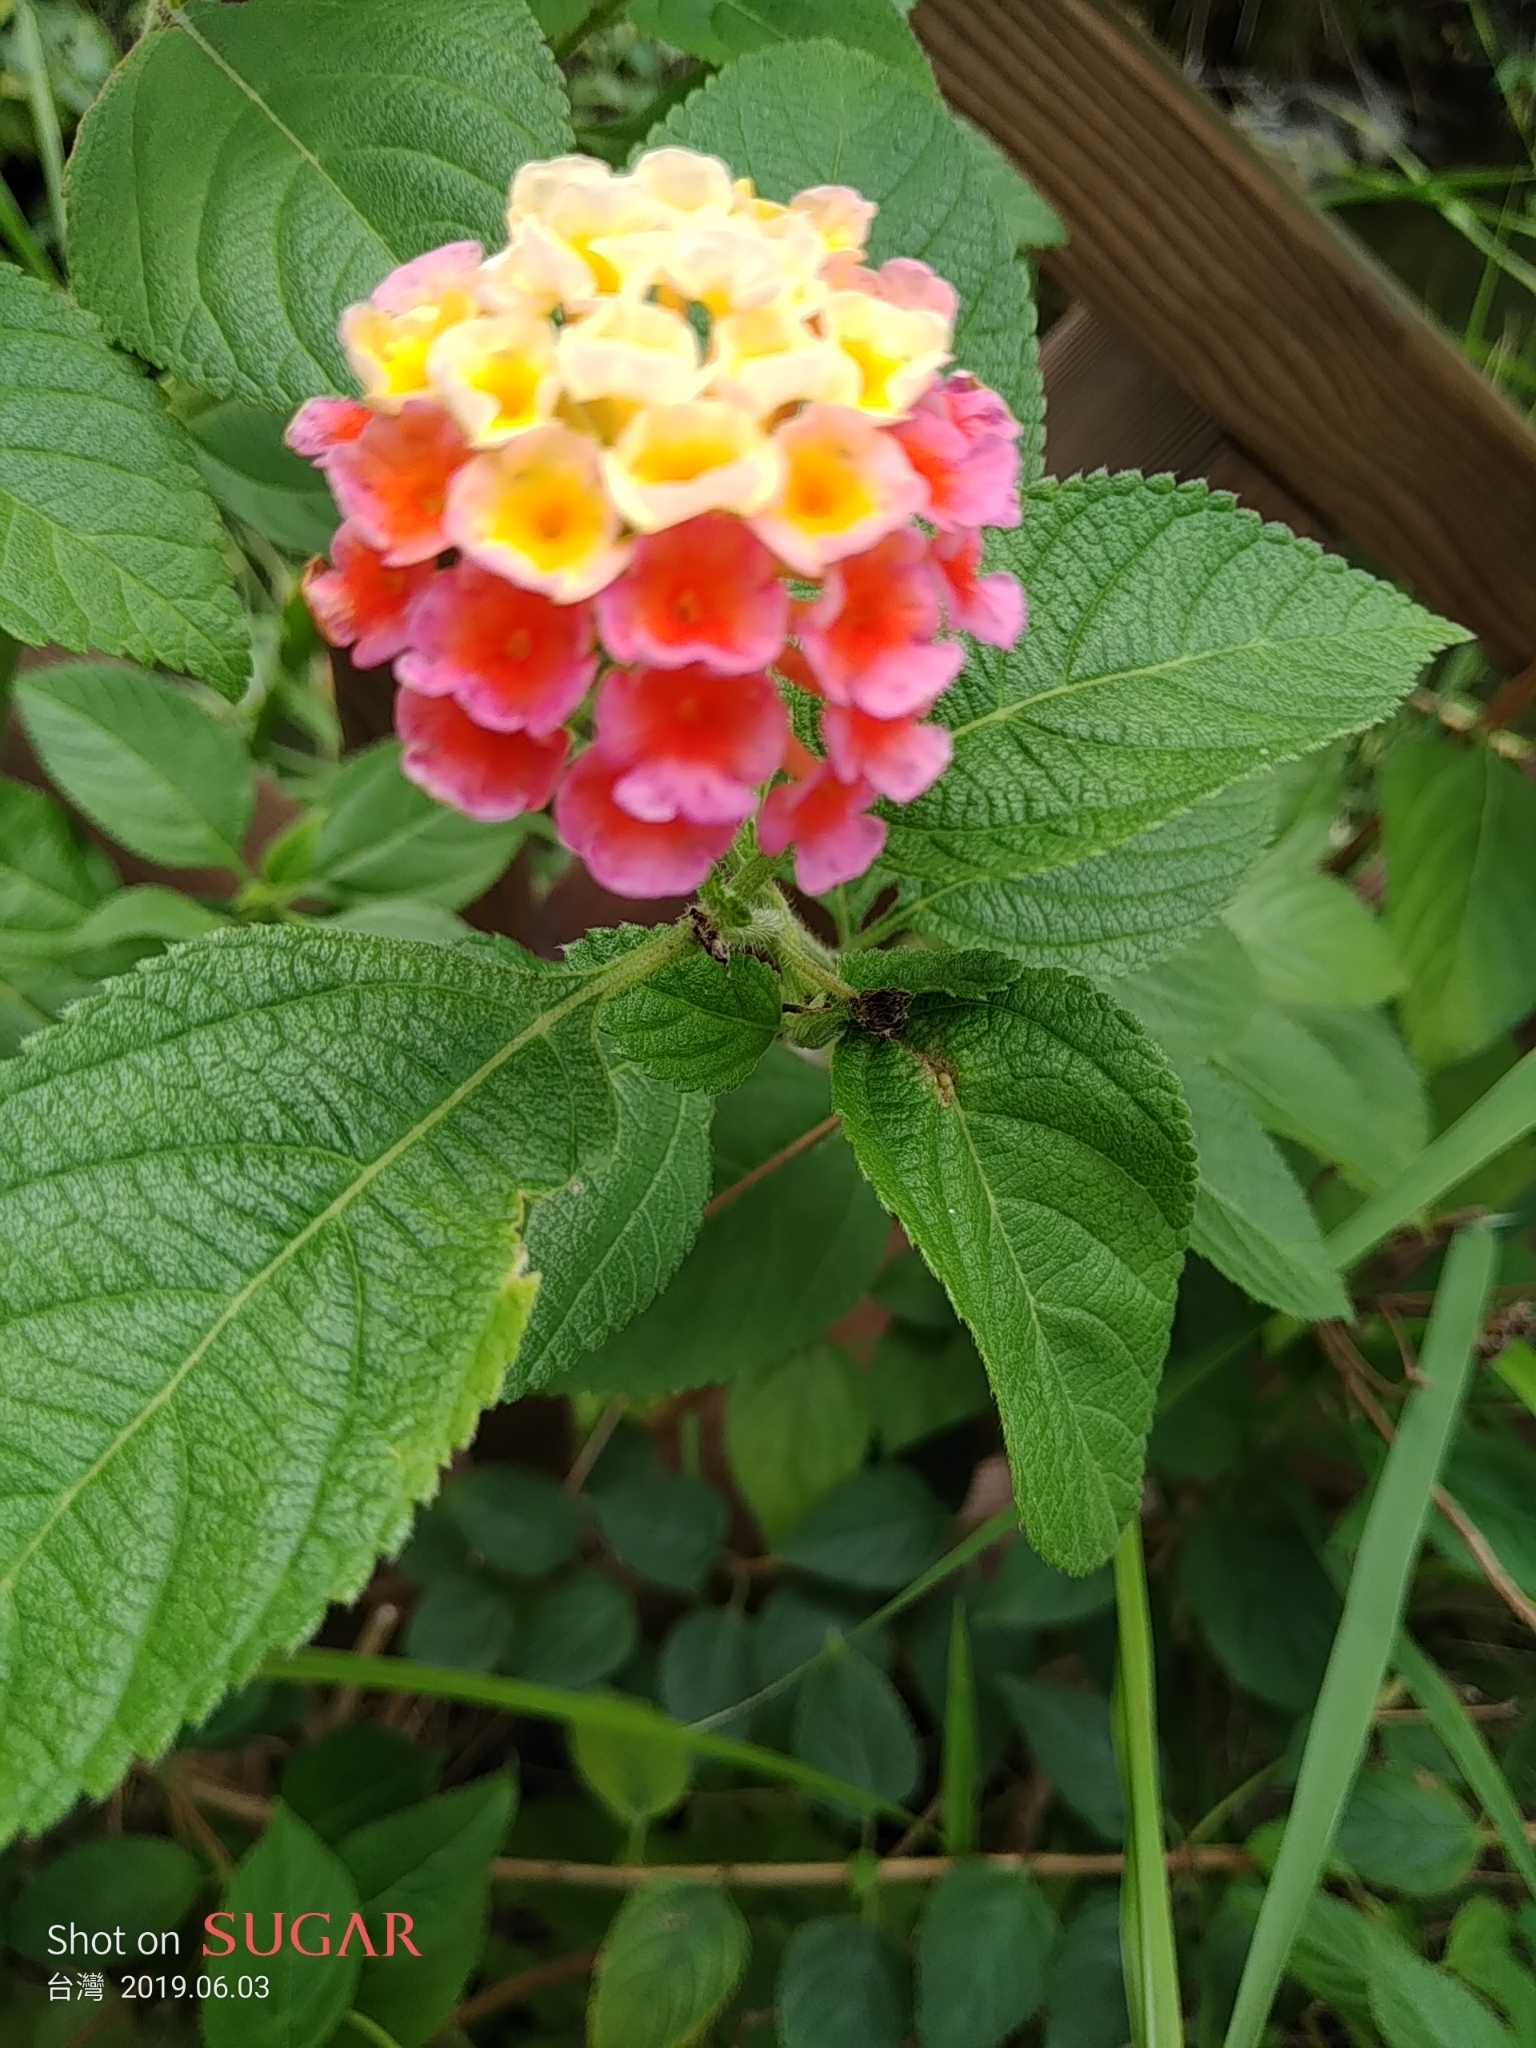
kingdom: Plantae
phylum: Tracheophyta
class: Magnoliopsida
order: Lamiales
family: Verbenaceae
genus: Lantana
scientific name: Lantana camara
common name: Lantana
